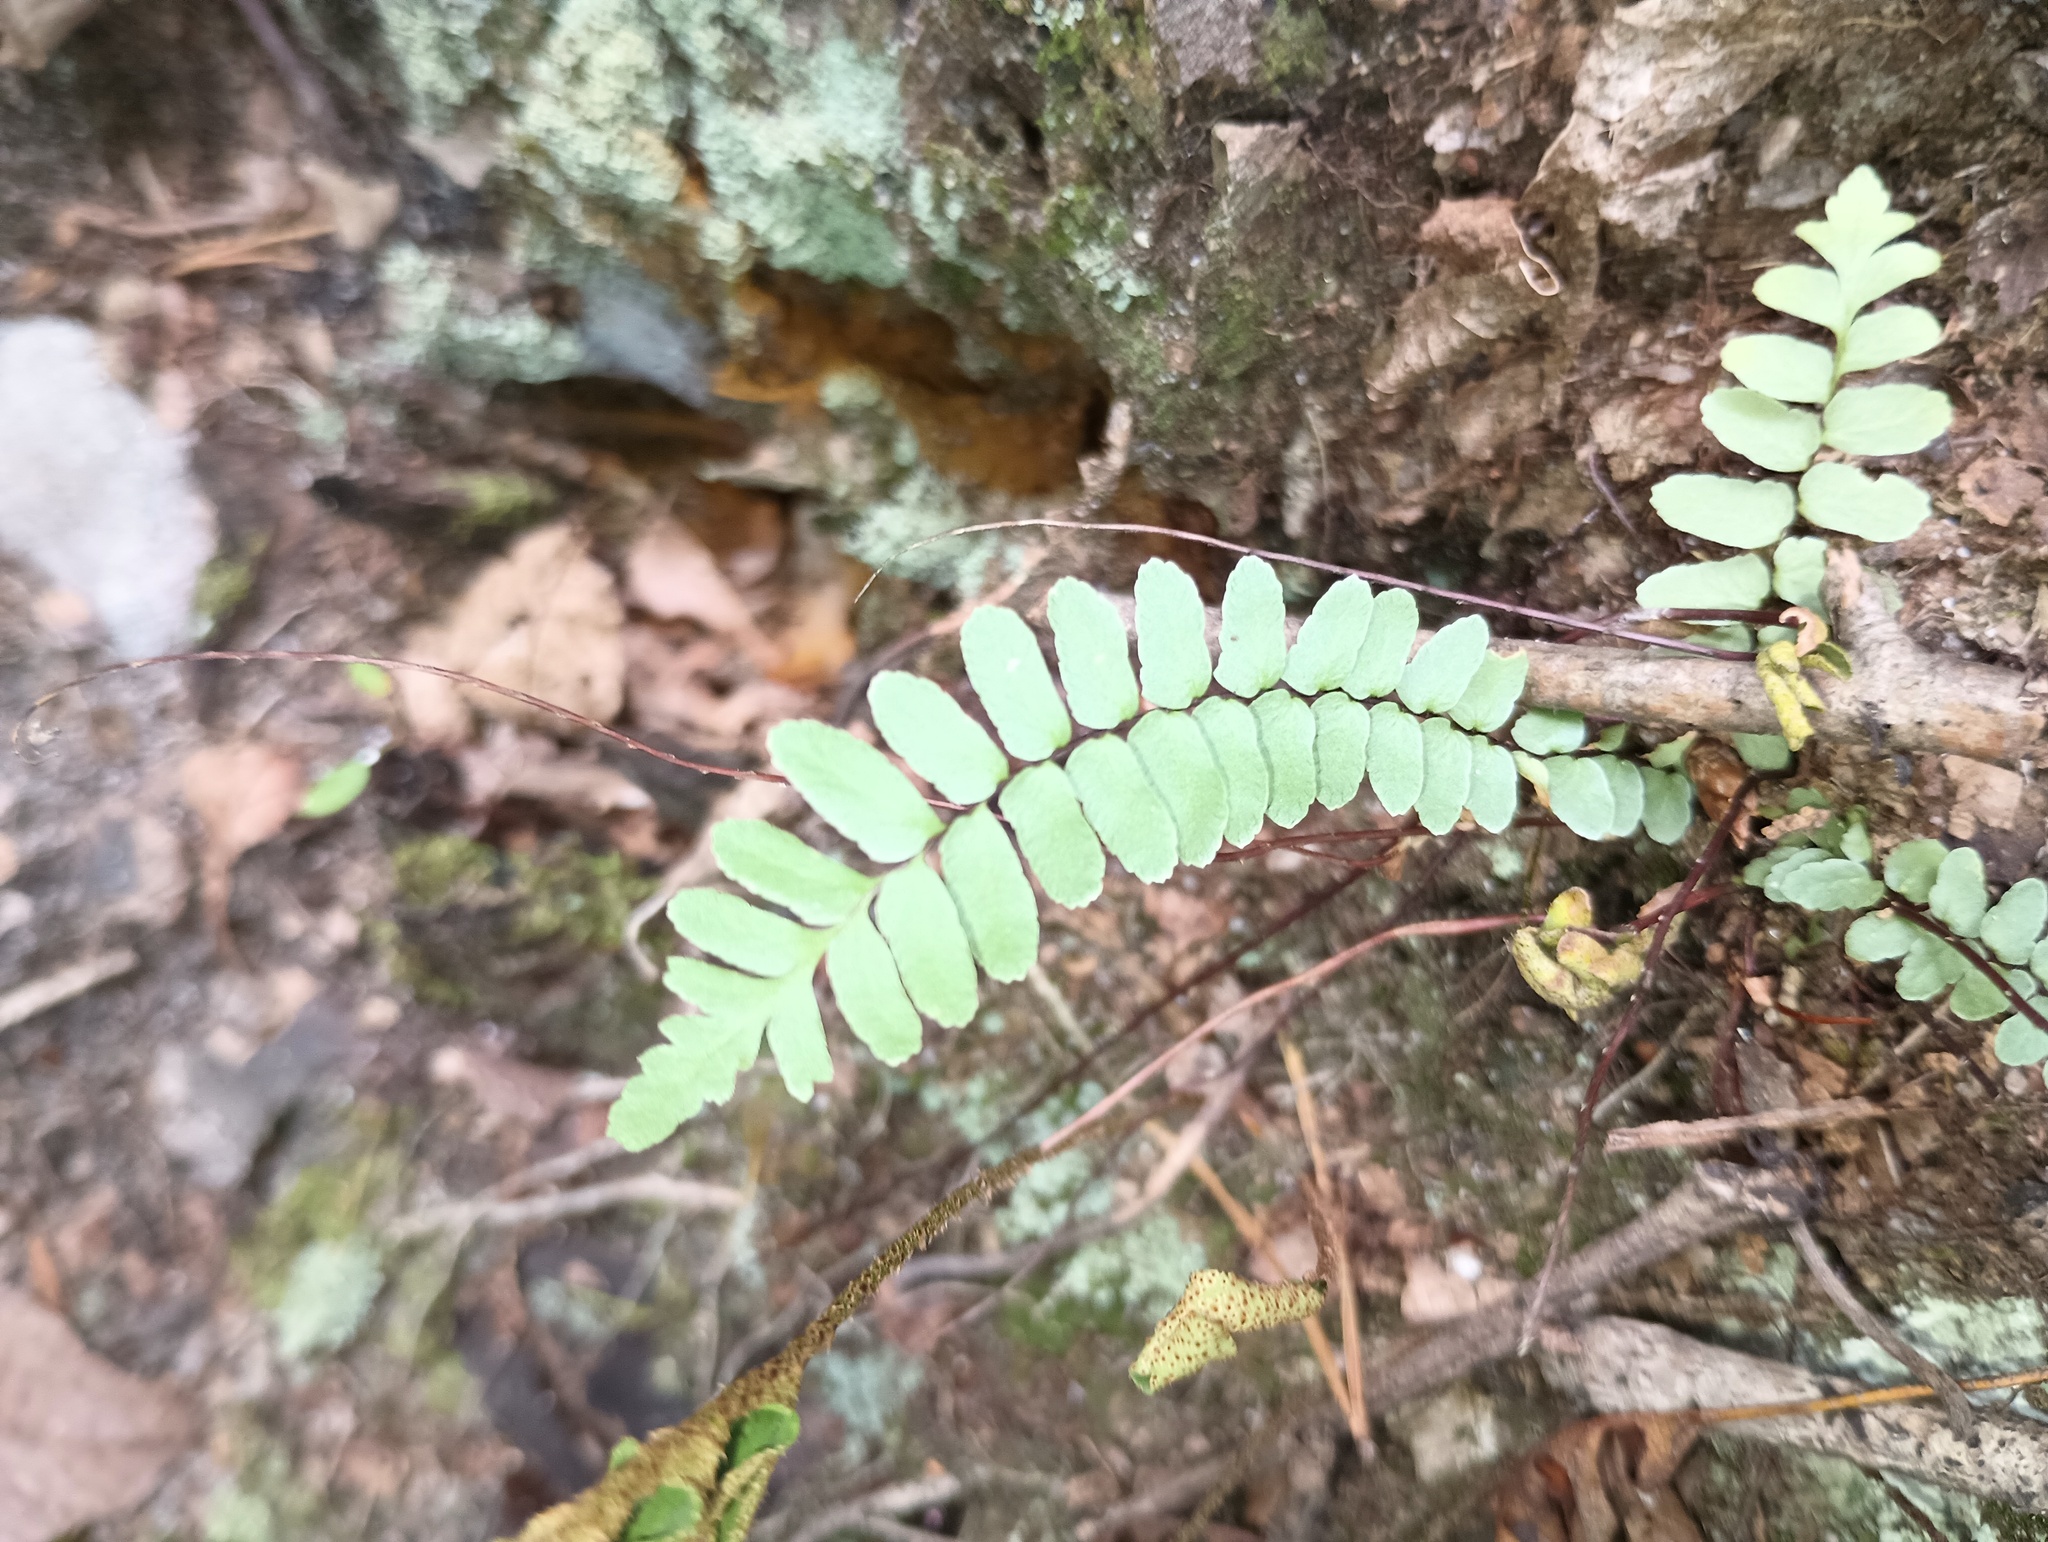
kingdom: Plantae
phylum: Tracheophyta
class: Polypodiopsida
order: Polypodiales
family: Aspleniaceae
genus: Asplenium
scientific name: Asplenium platyneuron
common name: Ebony spleenwort
